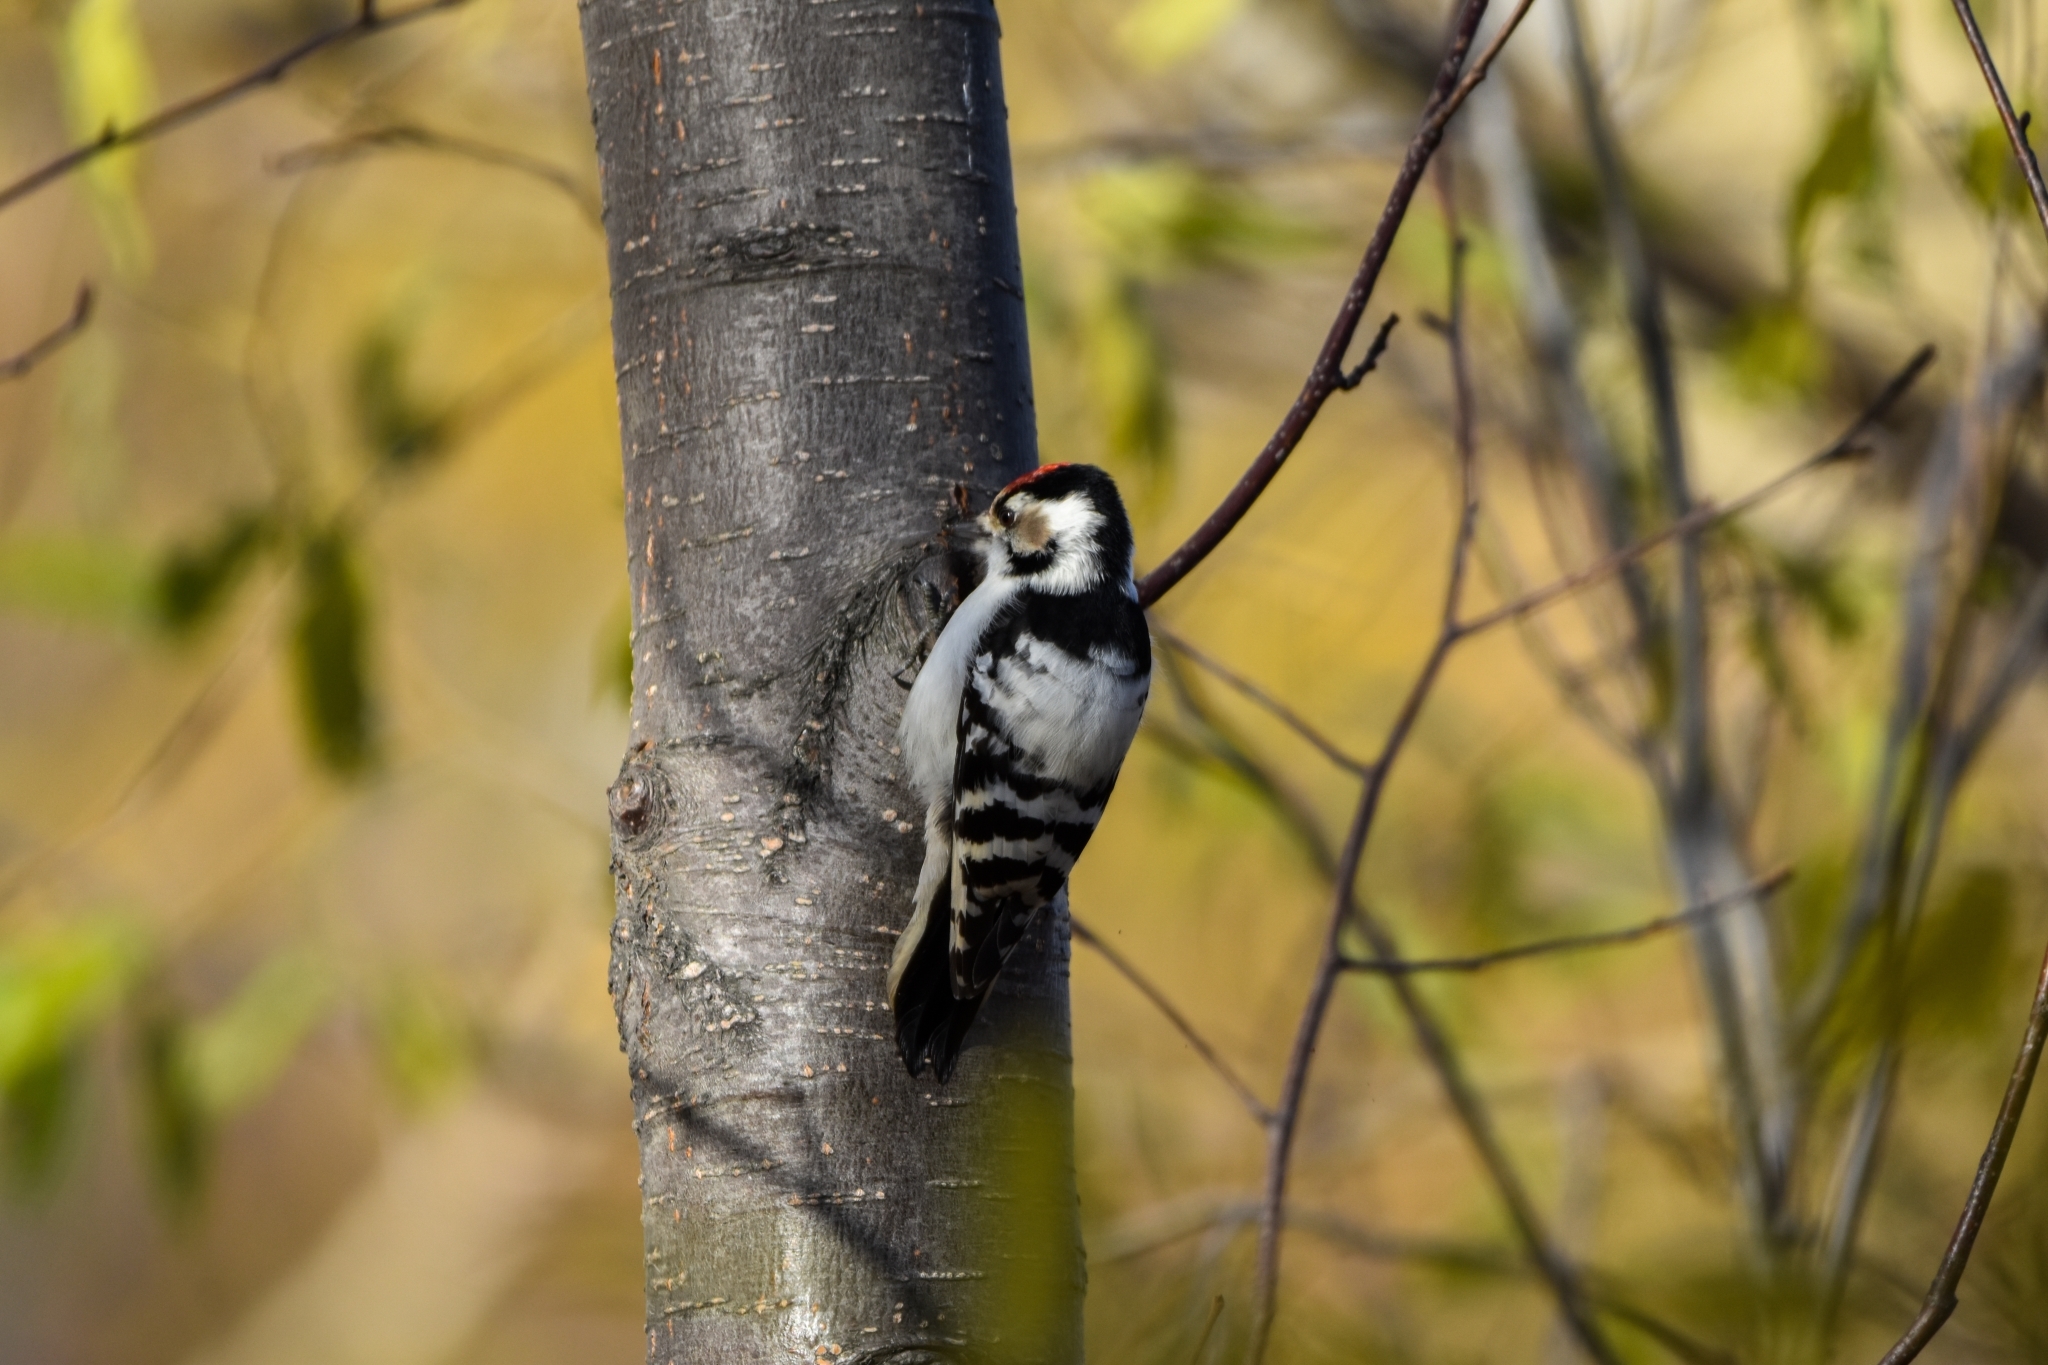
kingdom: Animalia
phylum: Chordata
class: Aves
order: Piciformes
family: Picidae
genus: Dryobates
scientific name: Dryobates minor
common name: Lesser spotted woodpecker
